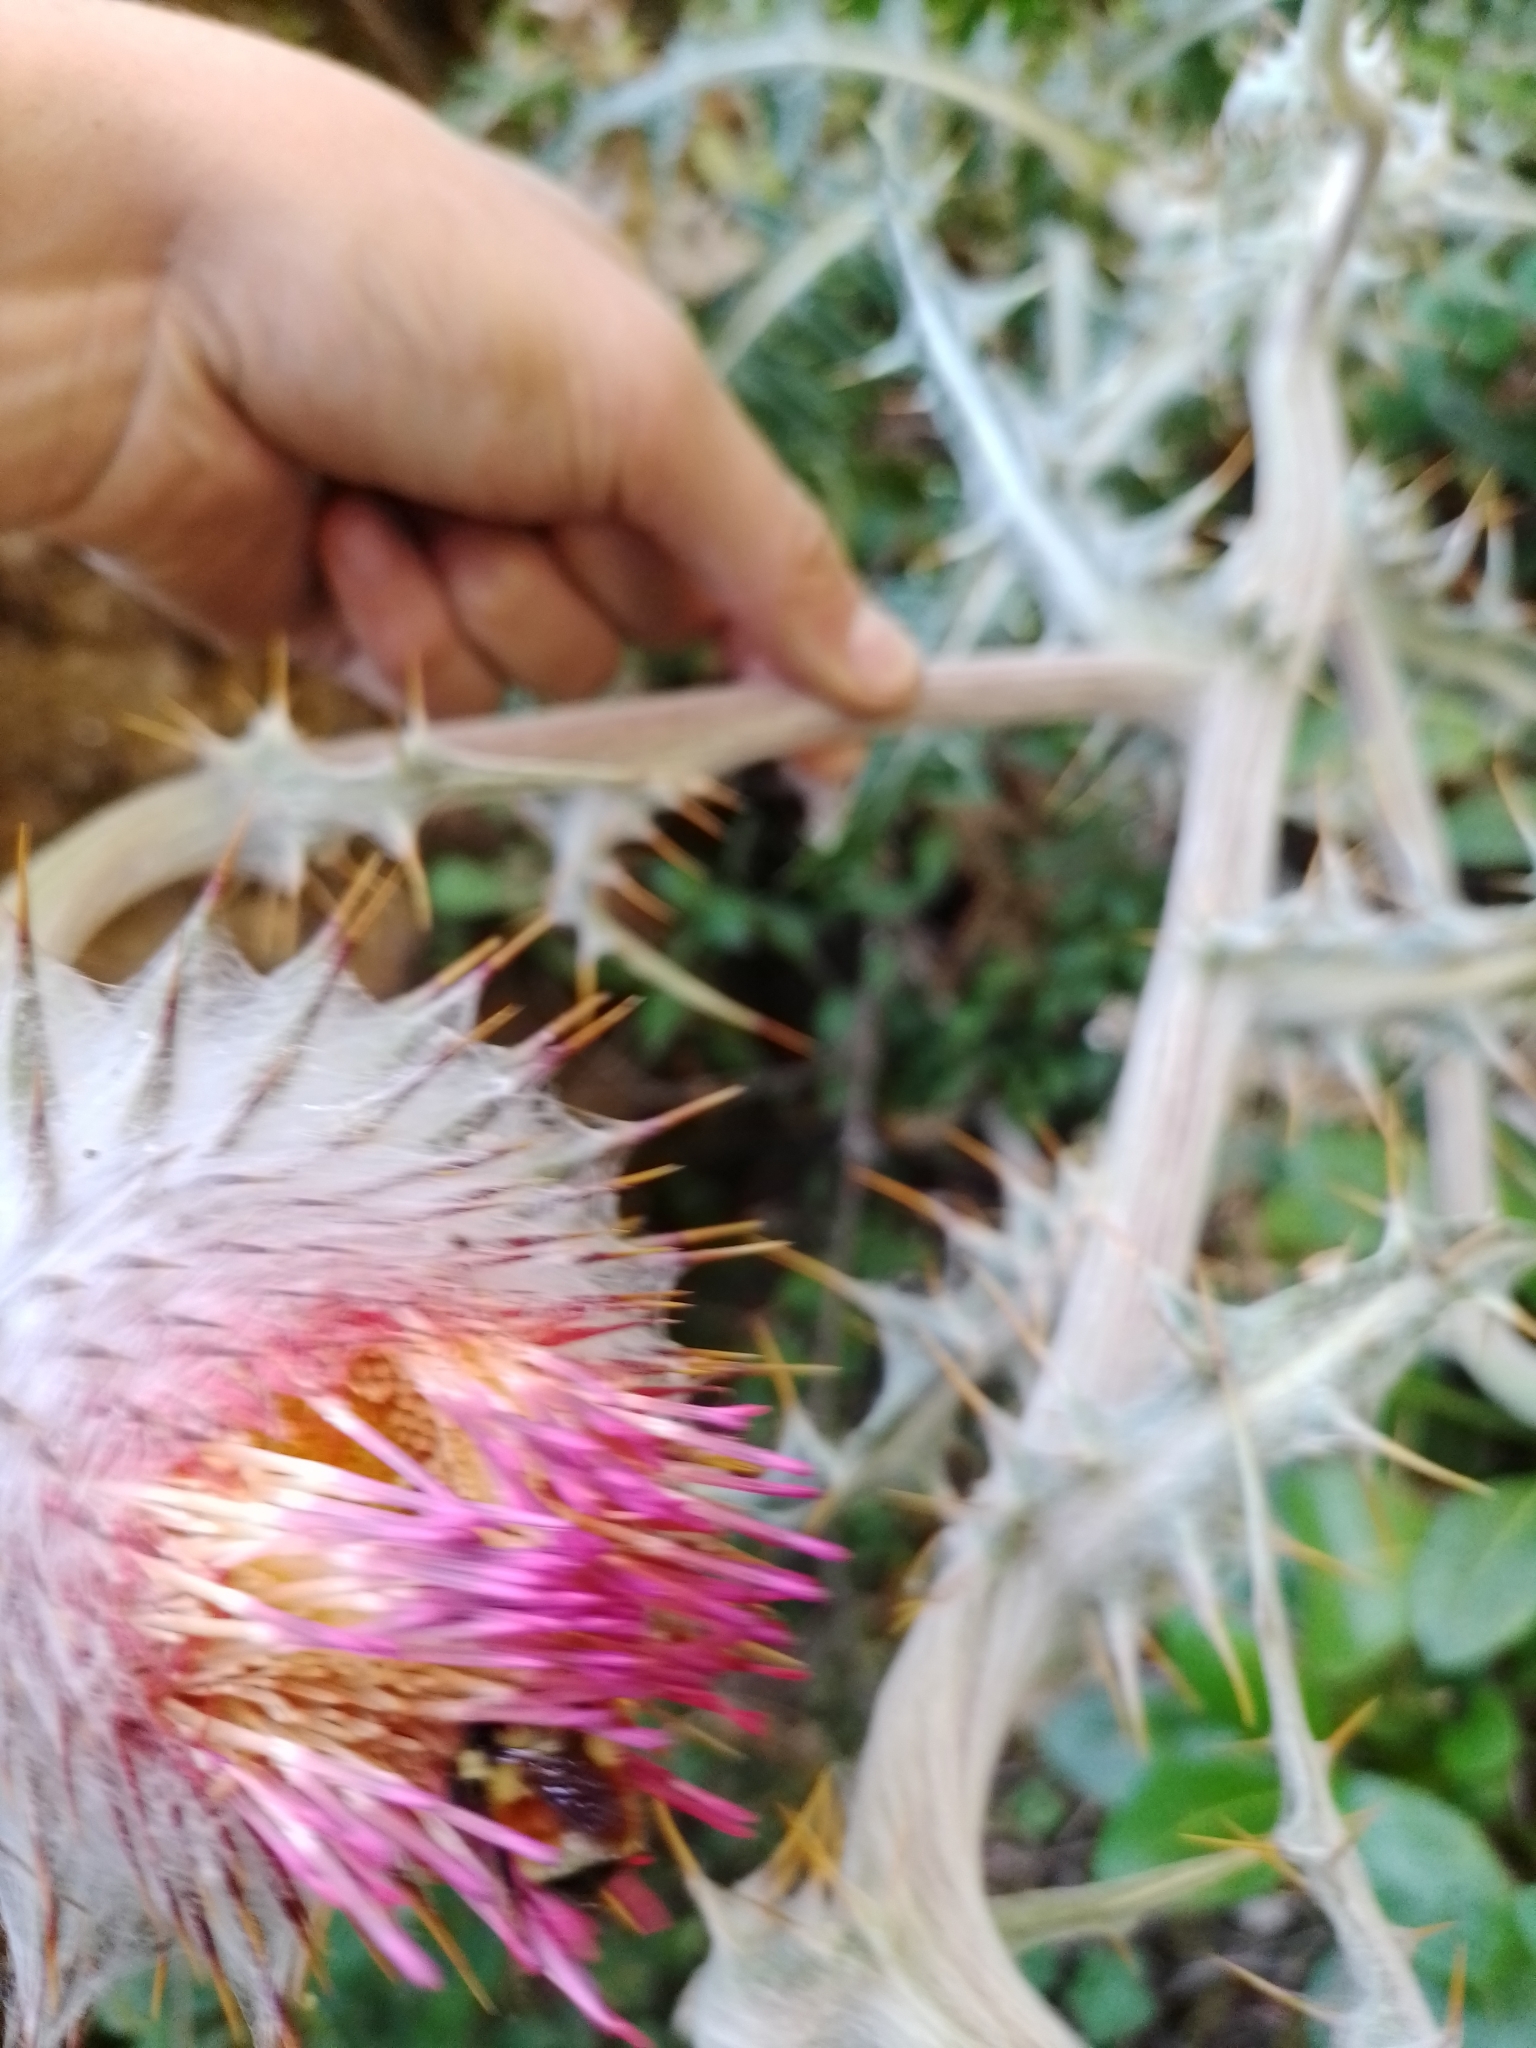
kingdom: Plantae
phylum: Tracheophyta
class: Magnoliopsida
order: Asterales
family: Asteraceae
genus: Cirsium
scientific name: Cirsium ehrenbergii
